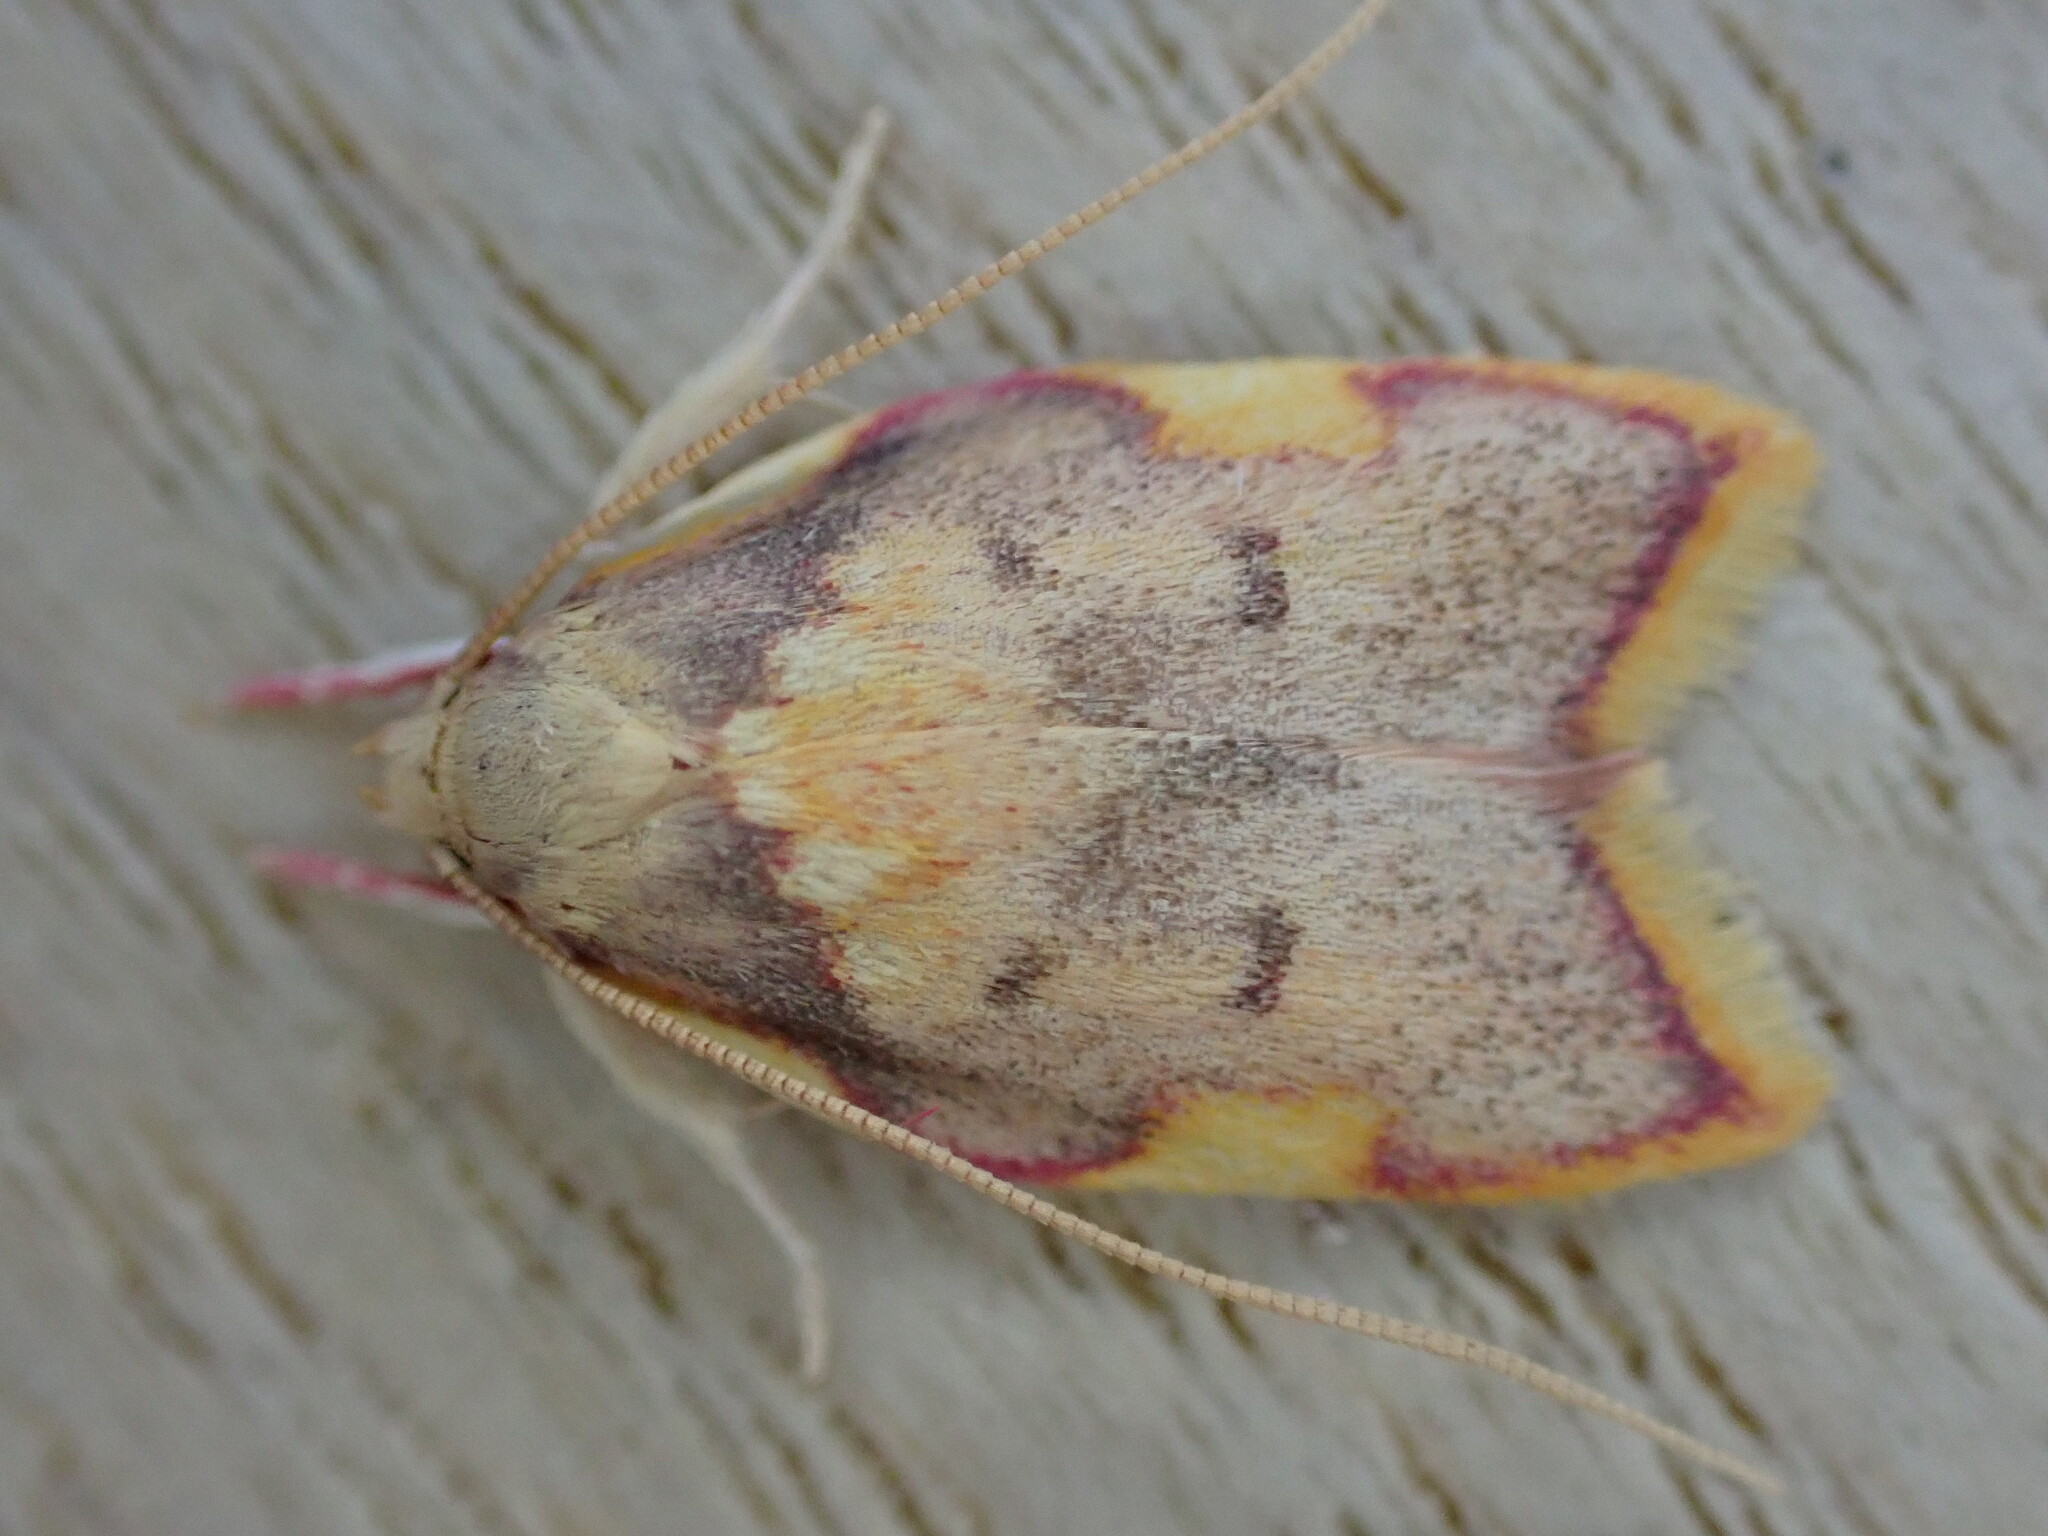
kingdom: Animalia
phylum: Arthropoda
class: Insecta
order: Lepidoptera
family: Peleopodidae
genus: Carcina
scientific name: Carcina quercana
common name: Moth
